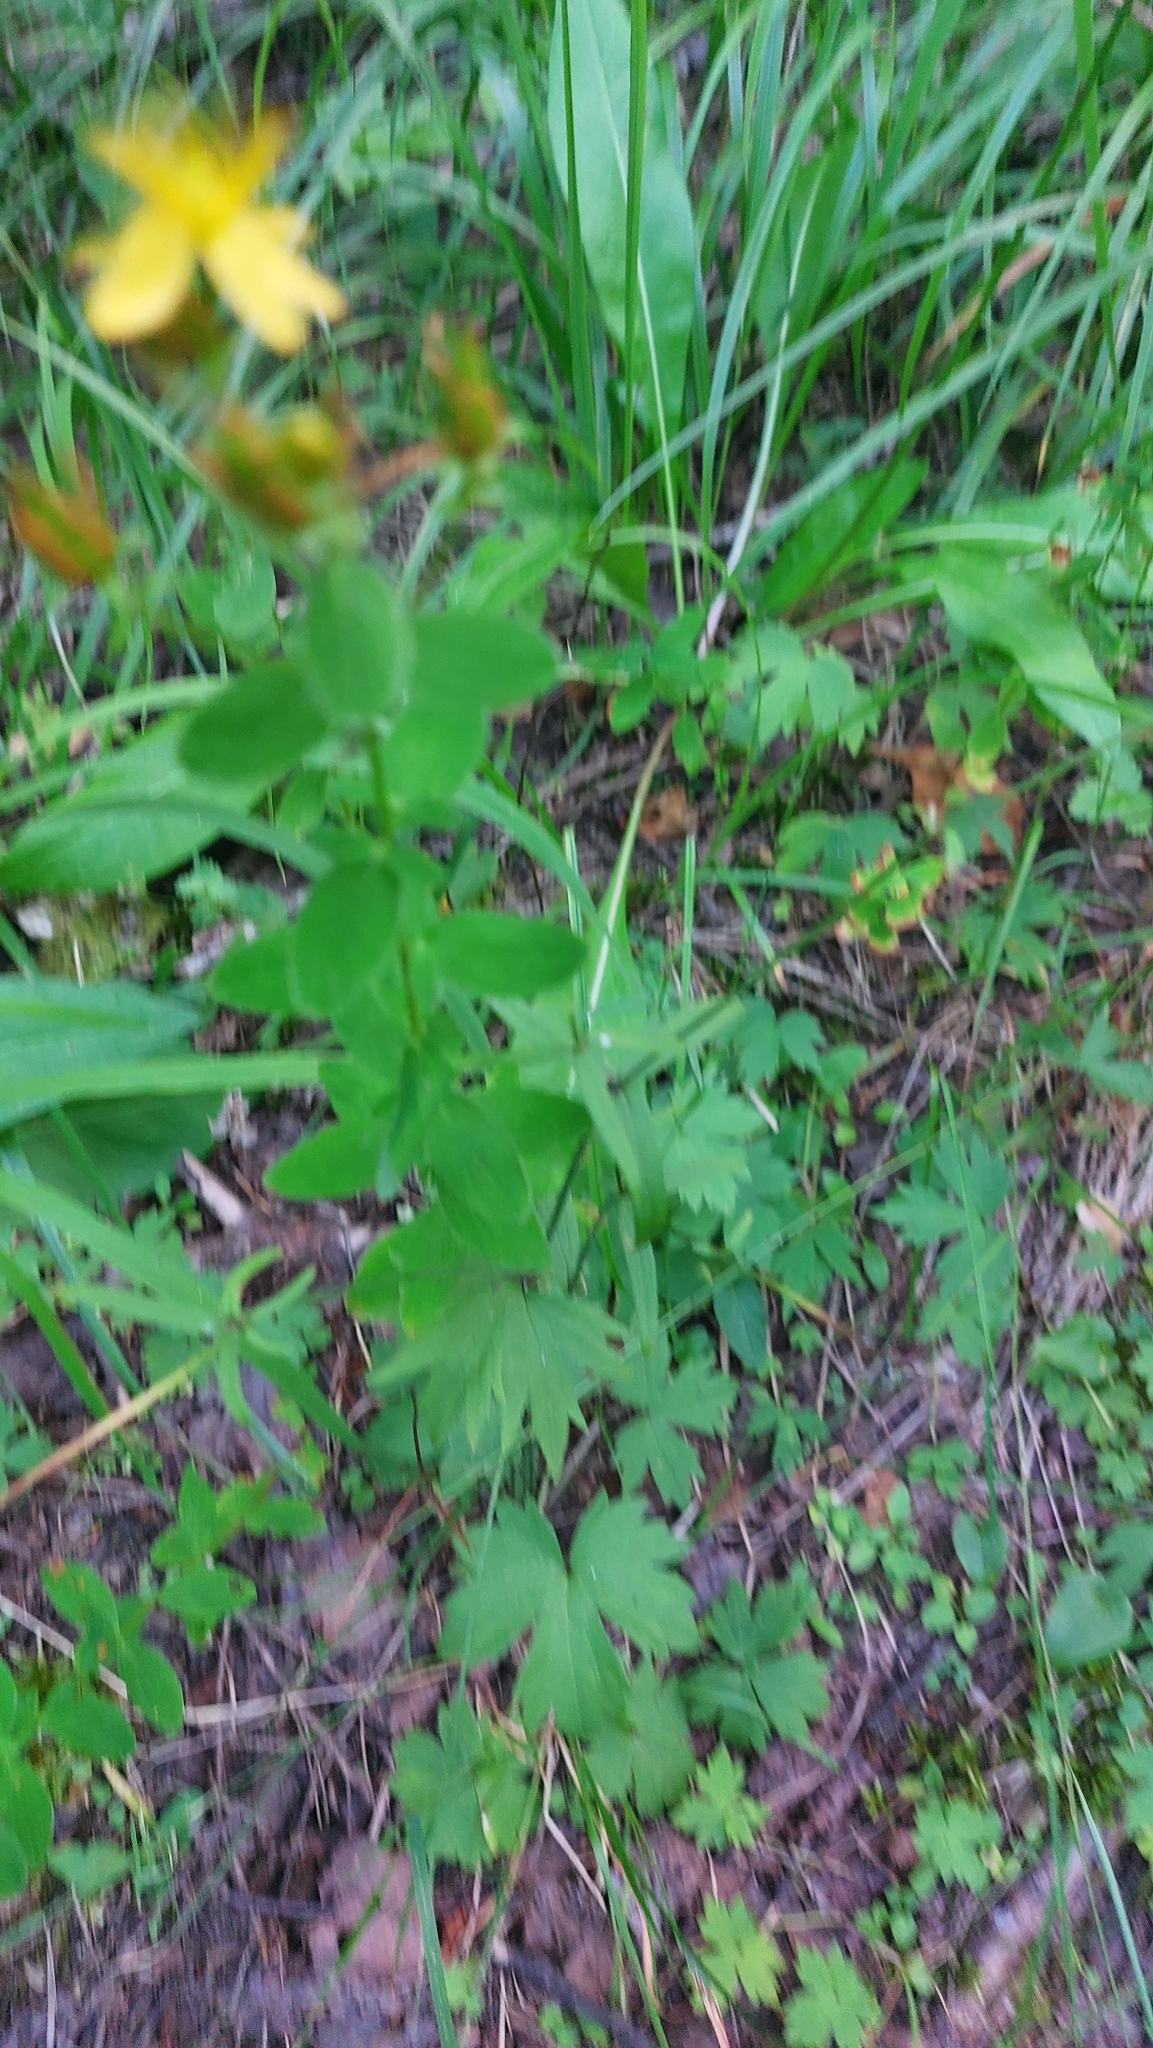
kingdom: Plantae
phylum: Tracheophyta
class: Magnoliopsida
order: Malpighiales
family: Hypericaceae
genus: Hypericum
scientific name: Hypericum maculatum
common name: Imperforate st. john's-wort
